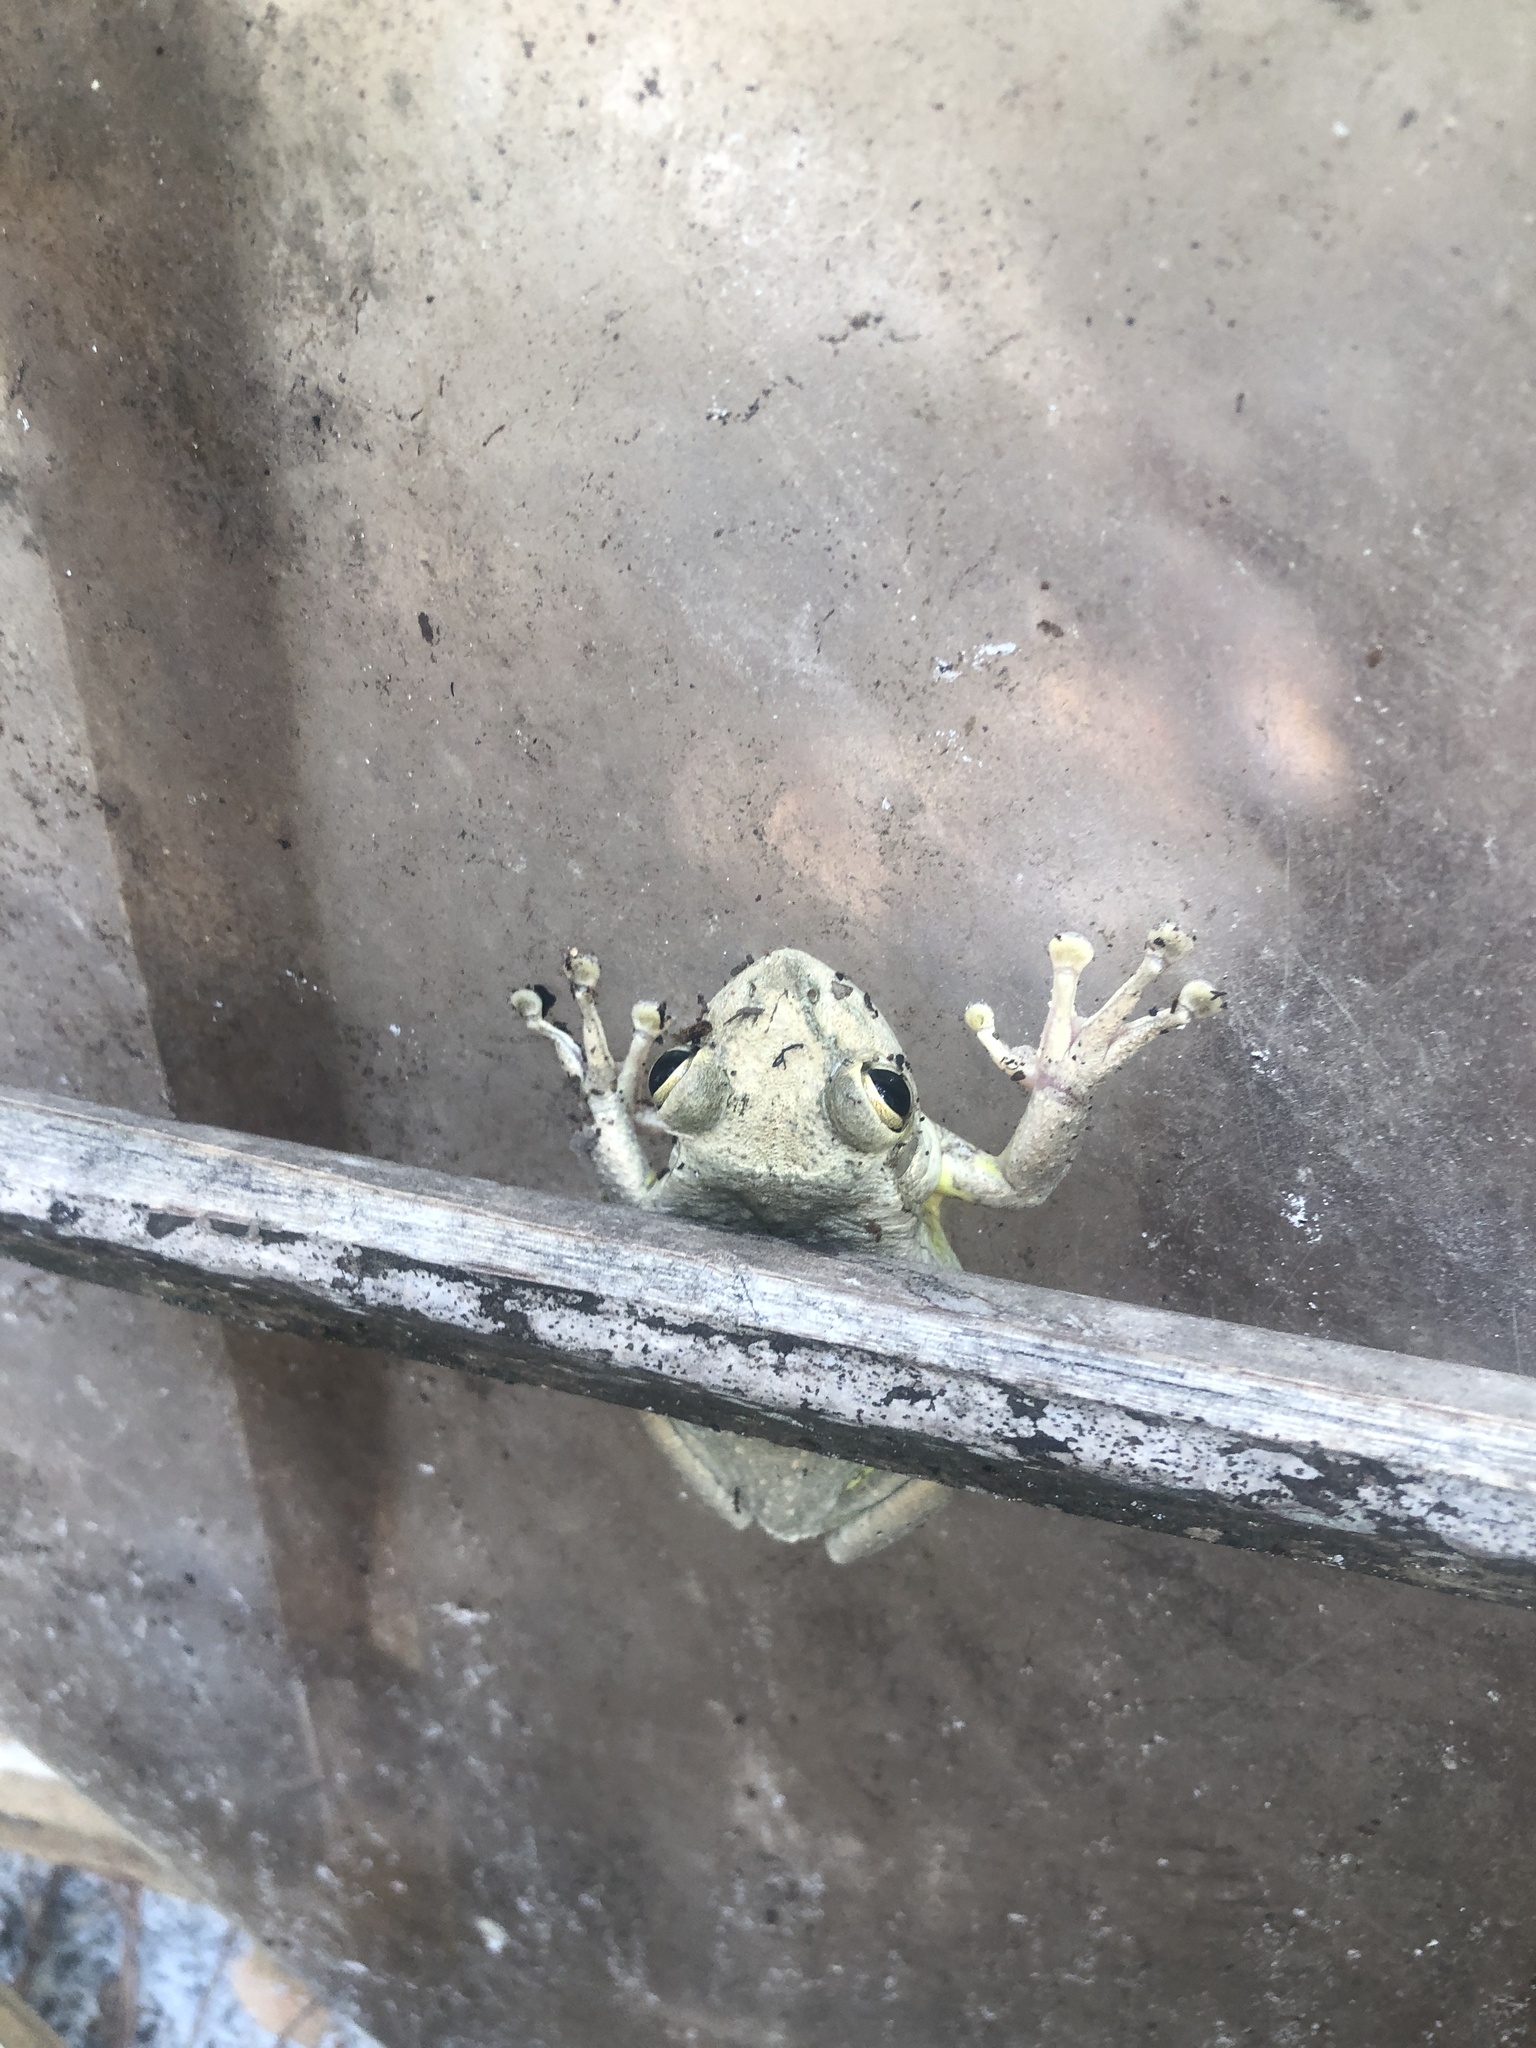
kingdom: Animalia
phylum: Chordata
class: Amphibia
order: Anura
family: Hylidae
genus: Osteopilus
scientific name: Osteopilus septentrionalis
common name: Cuban treefrog
